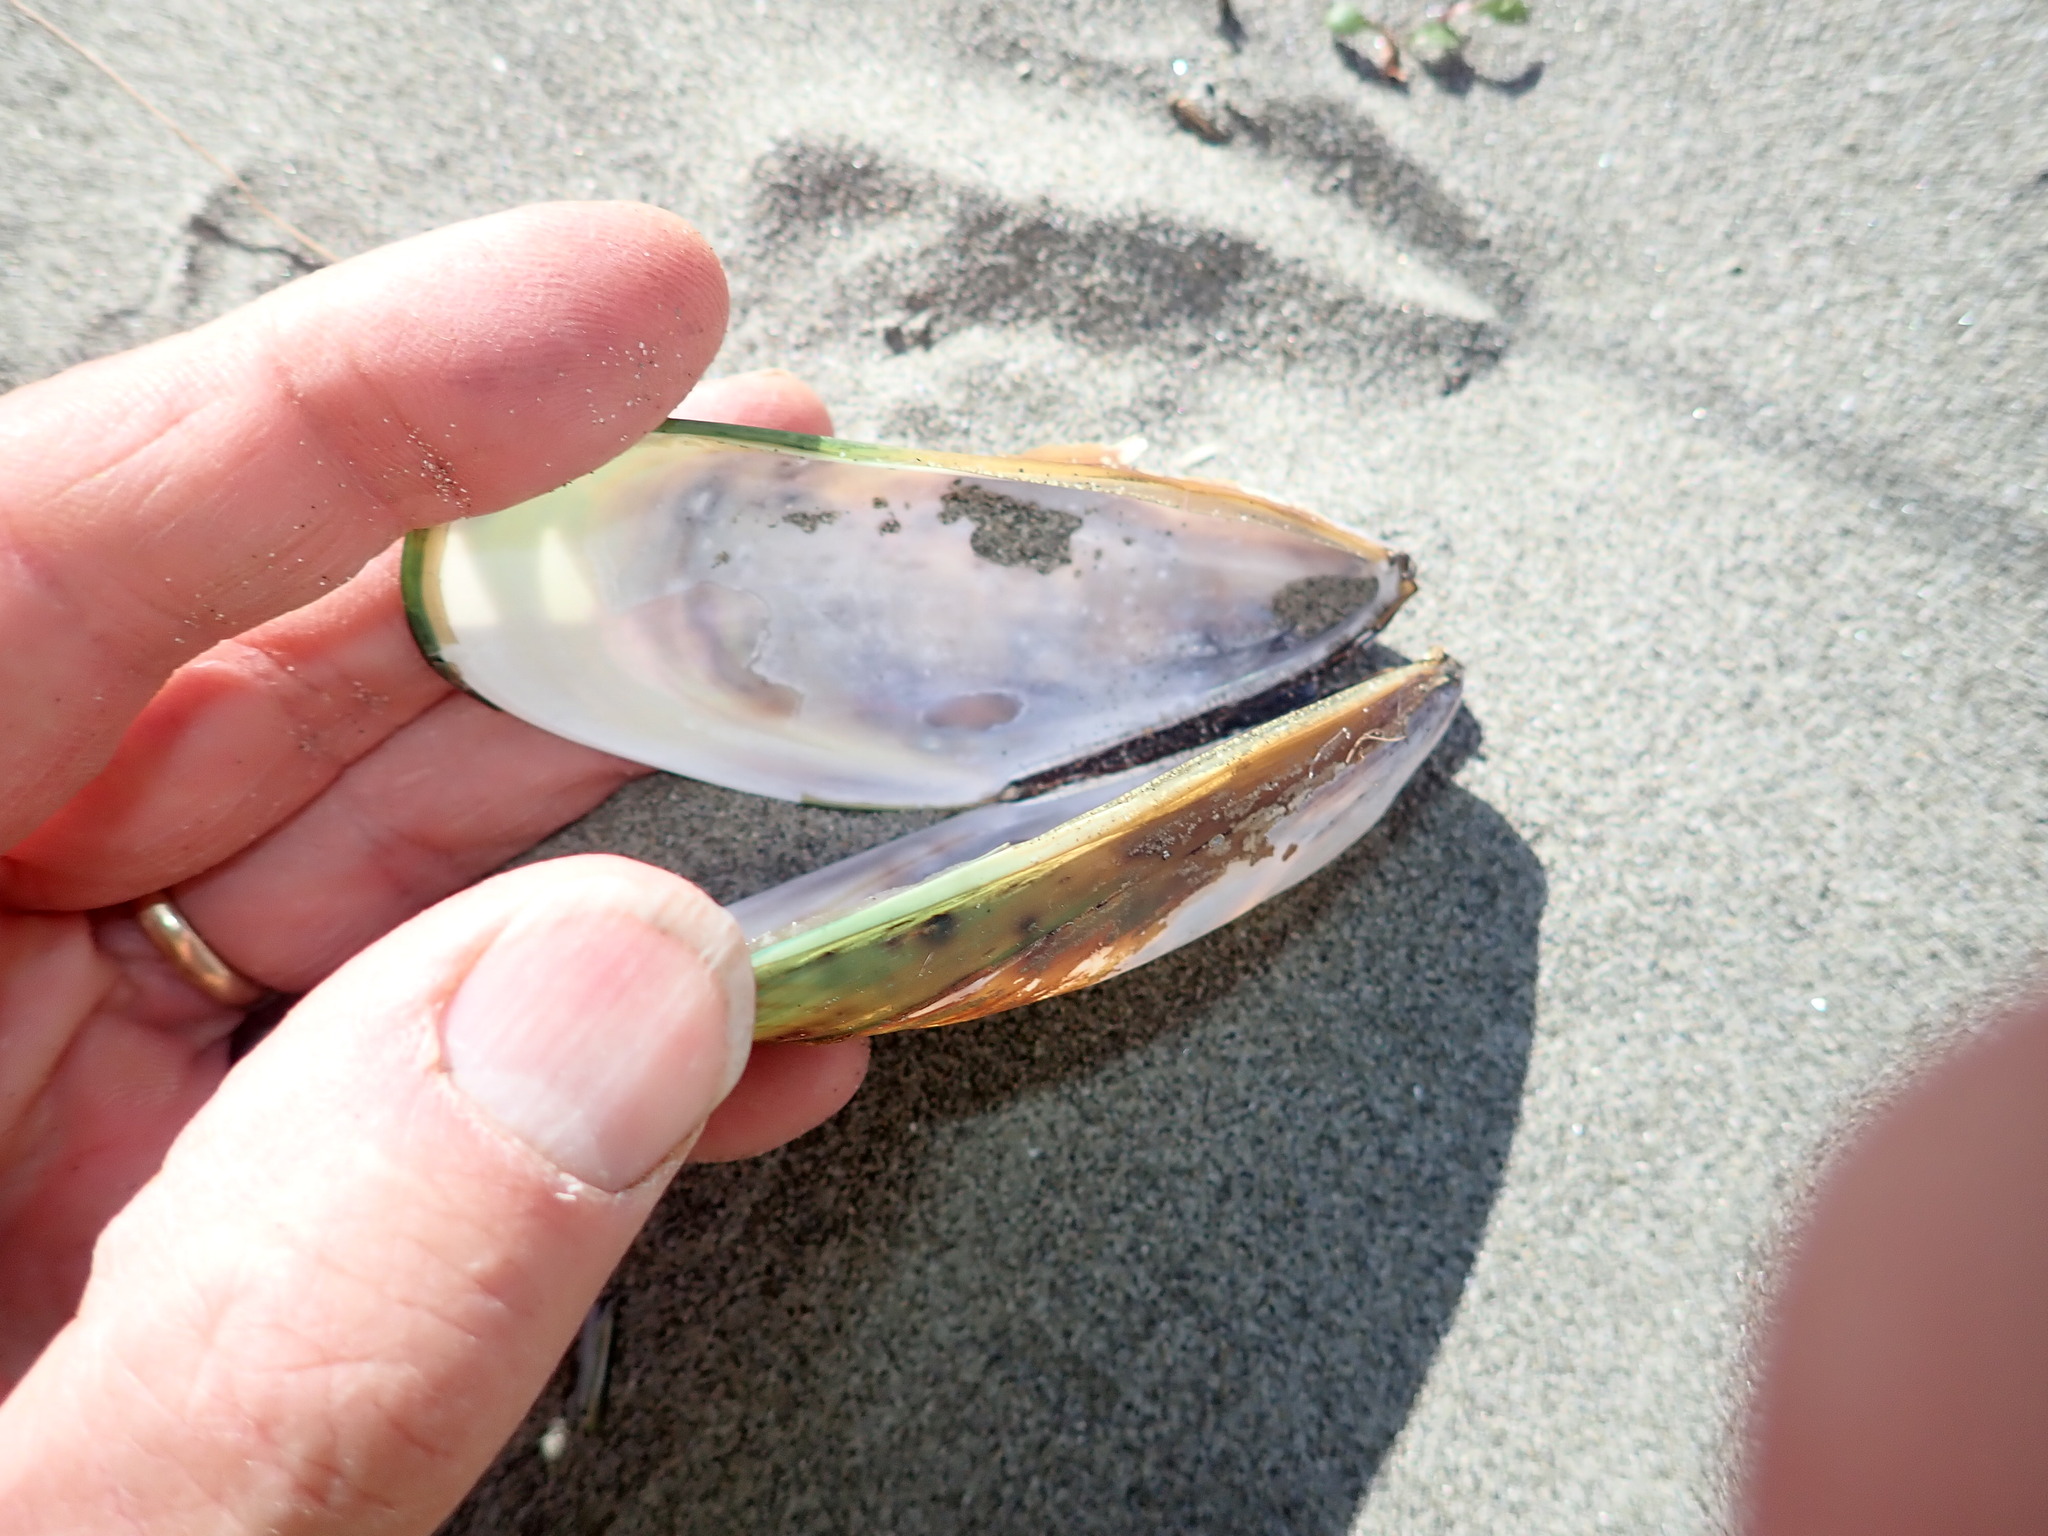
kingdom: Animalia
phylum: Mollusca
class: Bivalvia
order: Mytilida
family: Mytilidae
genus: Perna
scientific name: Perna canaliculus
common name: New zealand greenshelltm
